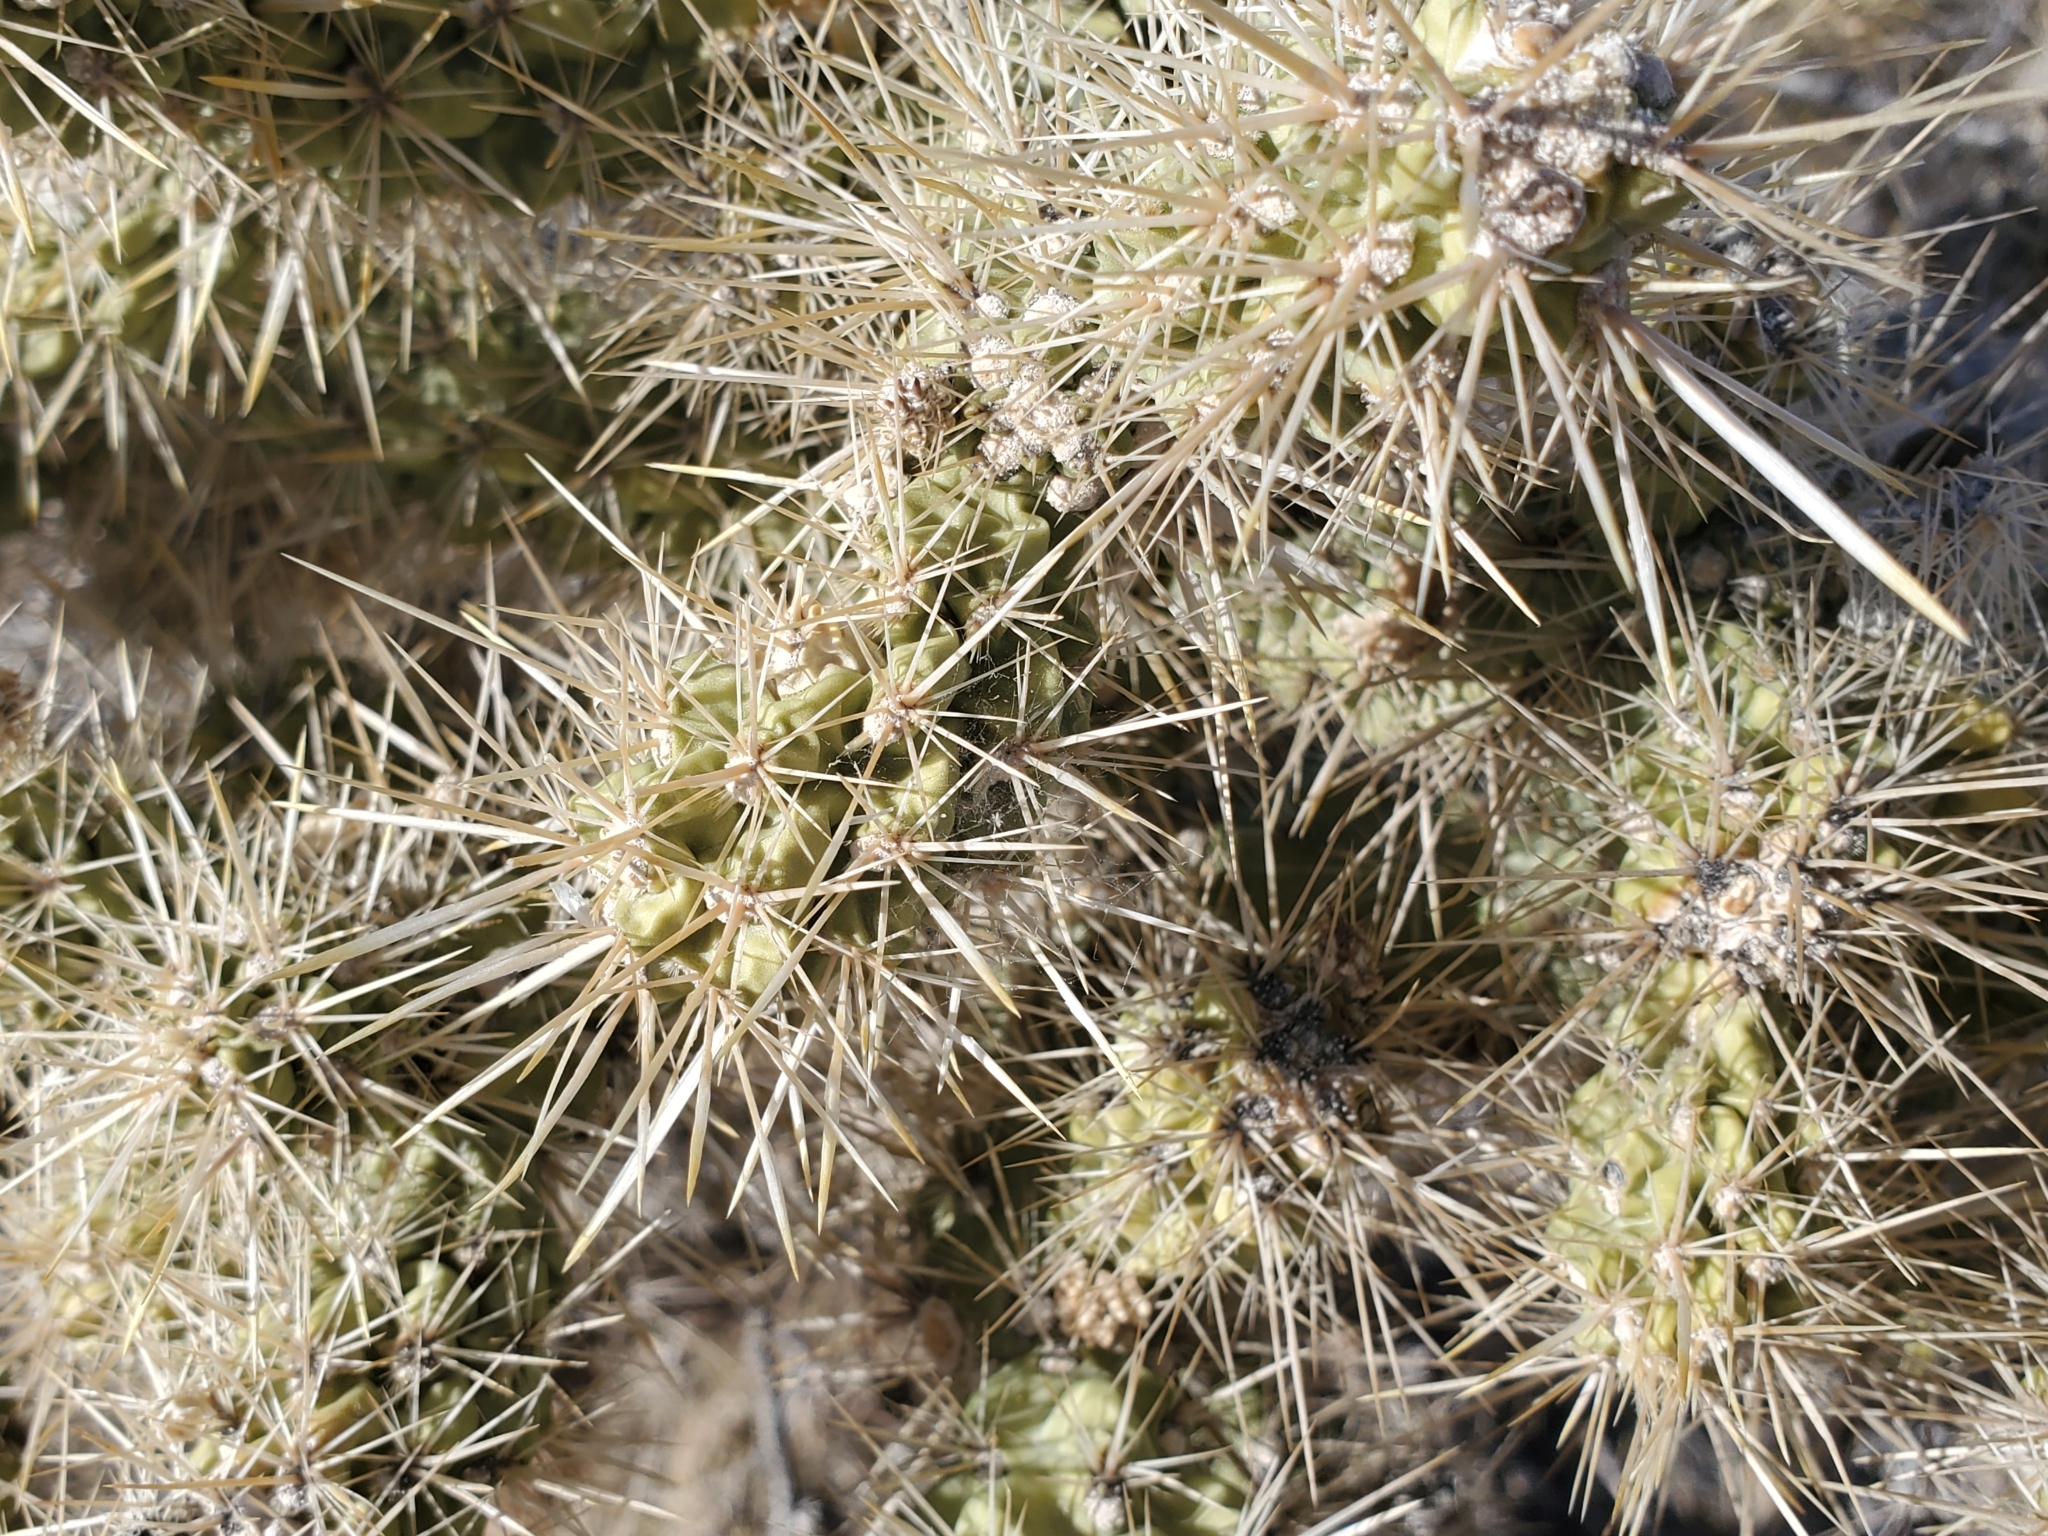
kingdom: Plantae
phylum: Tracheophyta
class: Magnoliopsida
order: Caryophyllales
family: Cactaceae
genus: Cylindropuntia
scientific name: Cylindropuntia echinocarpa
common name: Ground cholla
